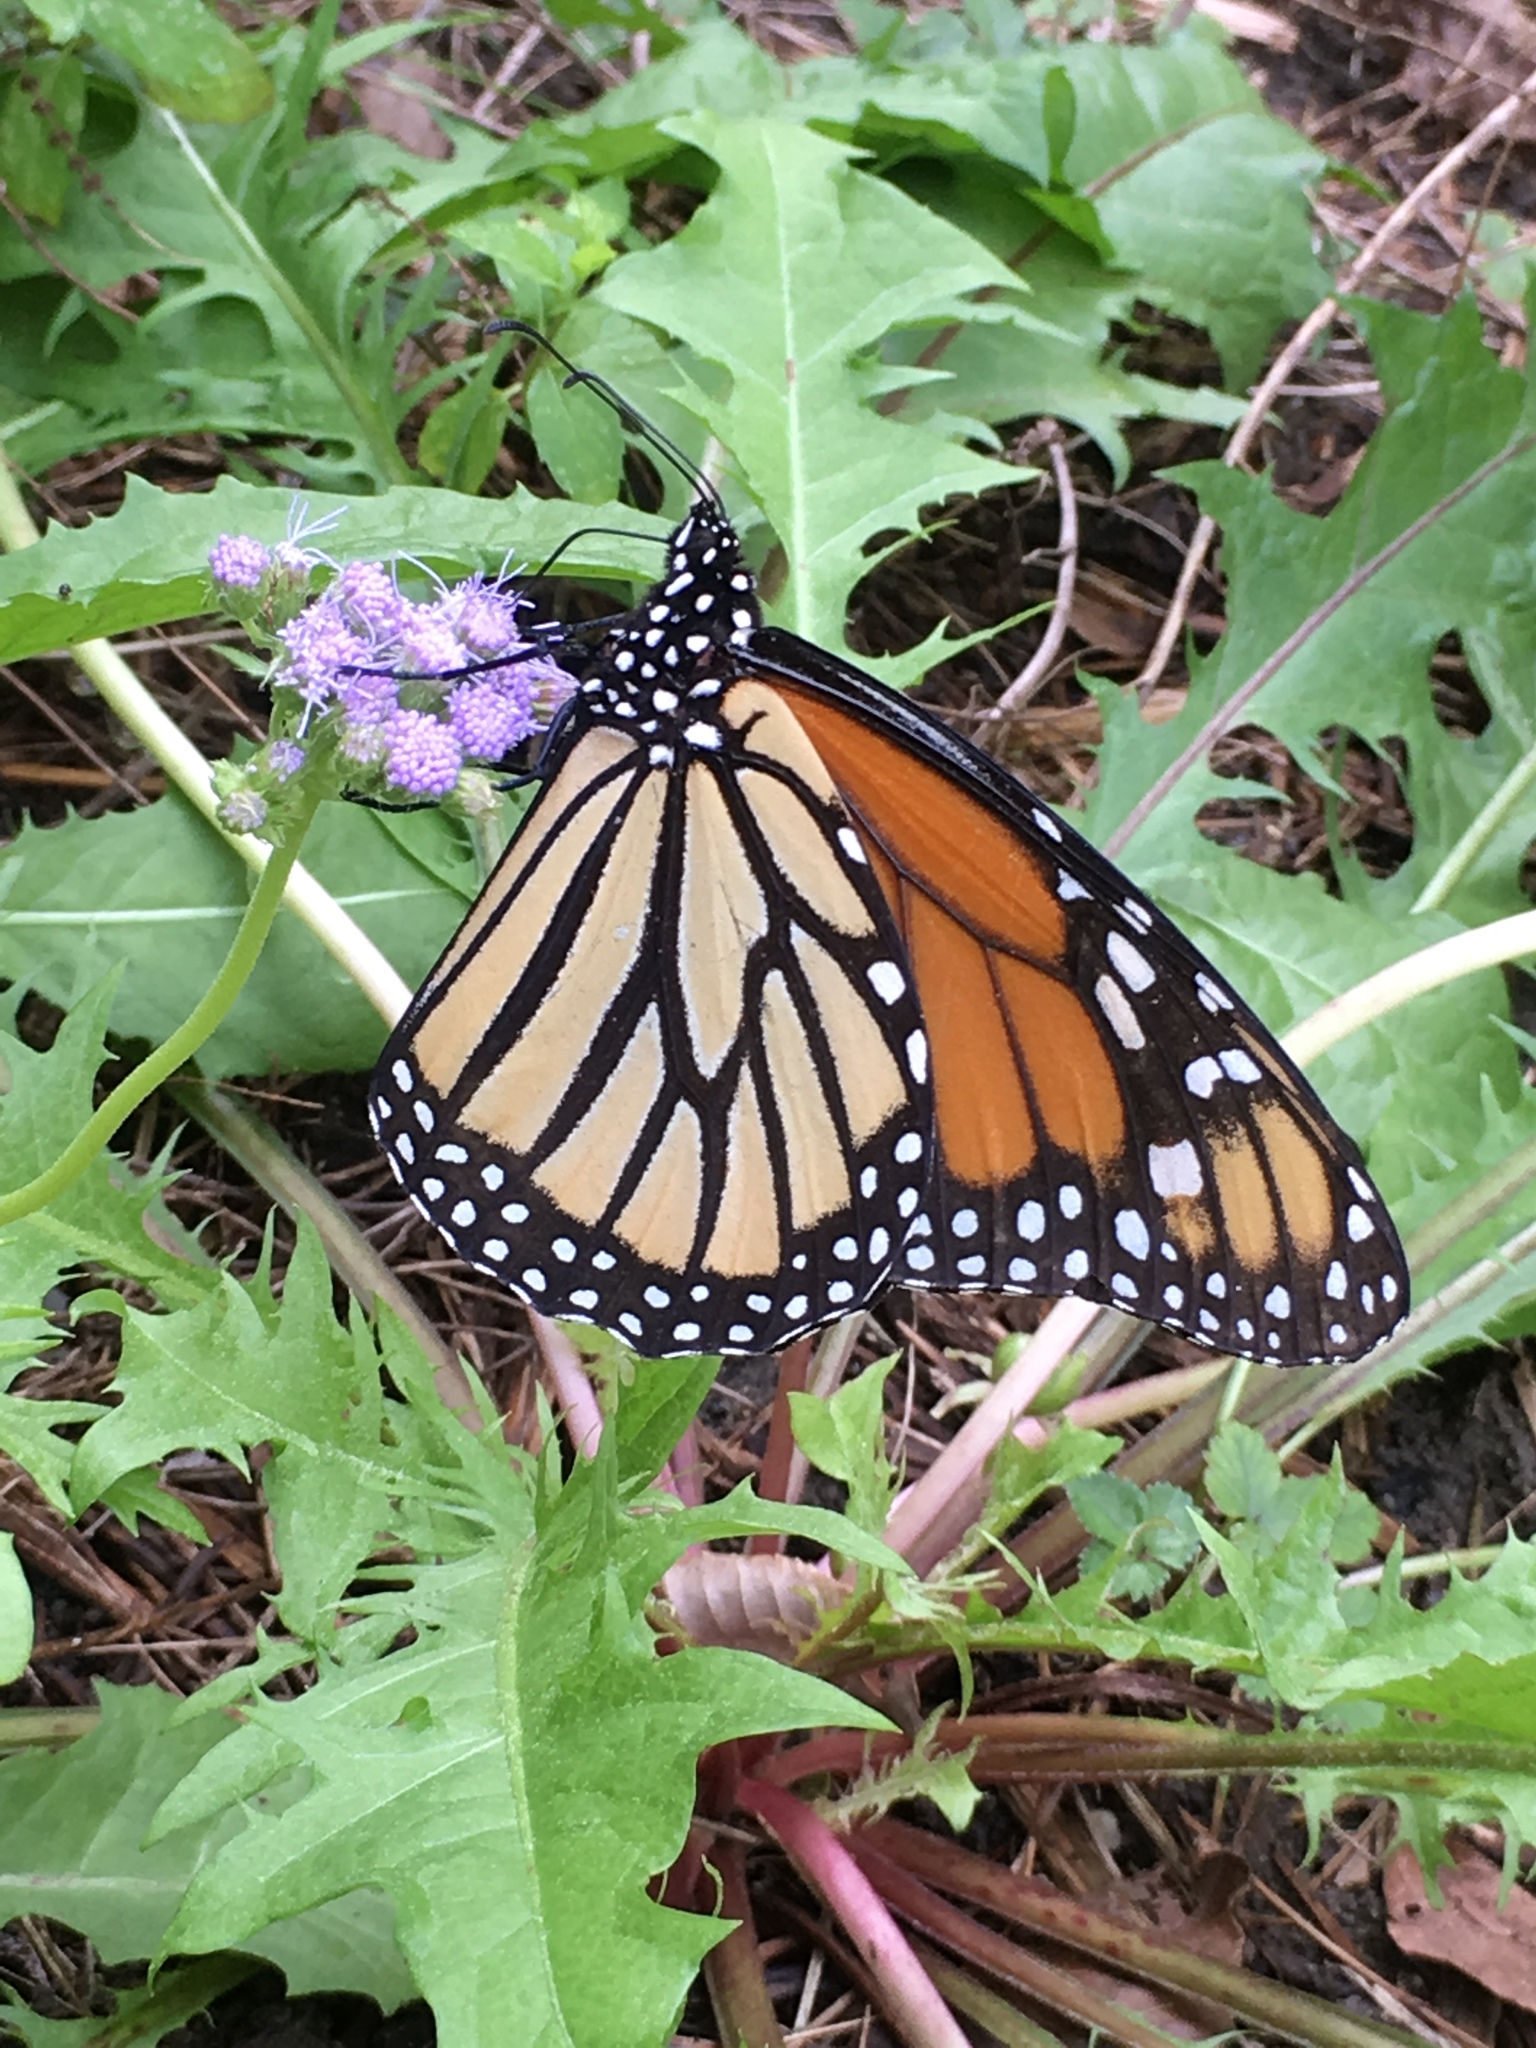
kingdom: Animalia
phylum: Arthropoda
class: Insecta
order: Lepidoptera
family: Nymphalidae
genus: Danaus
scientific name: Danaus plexippus
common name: Monarch
